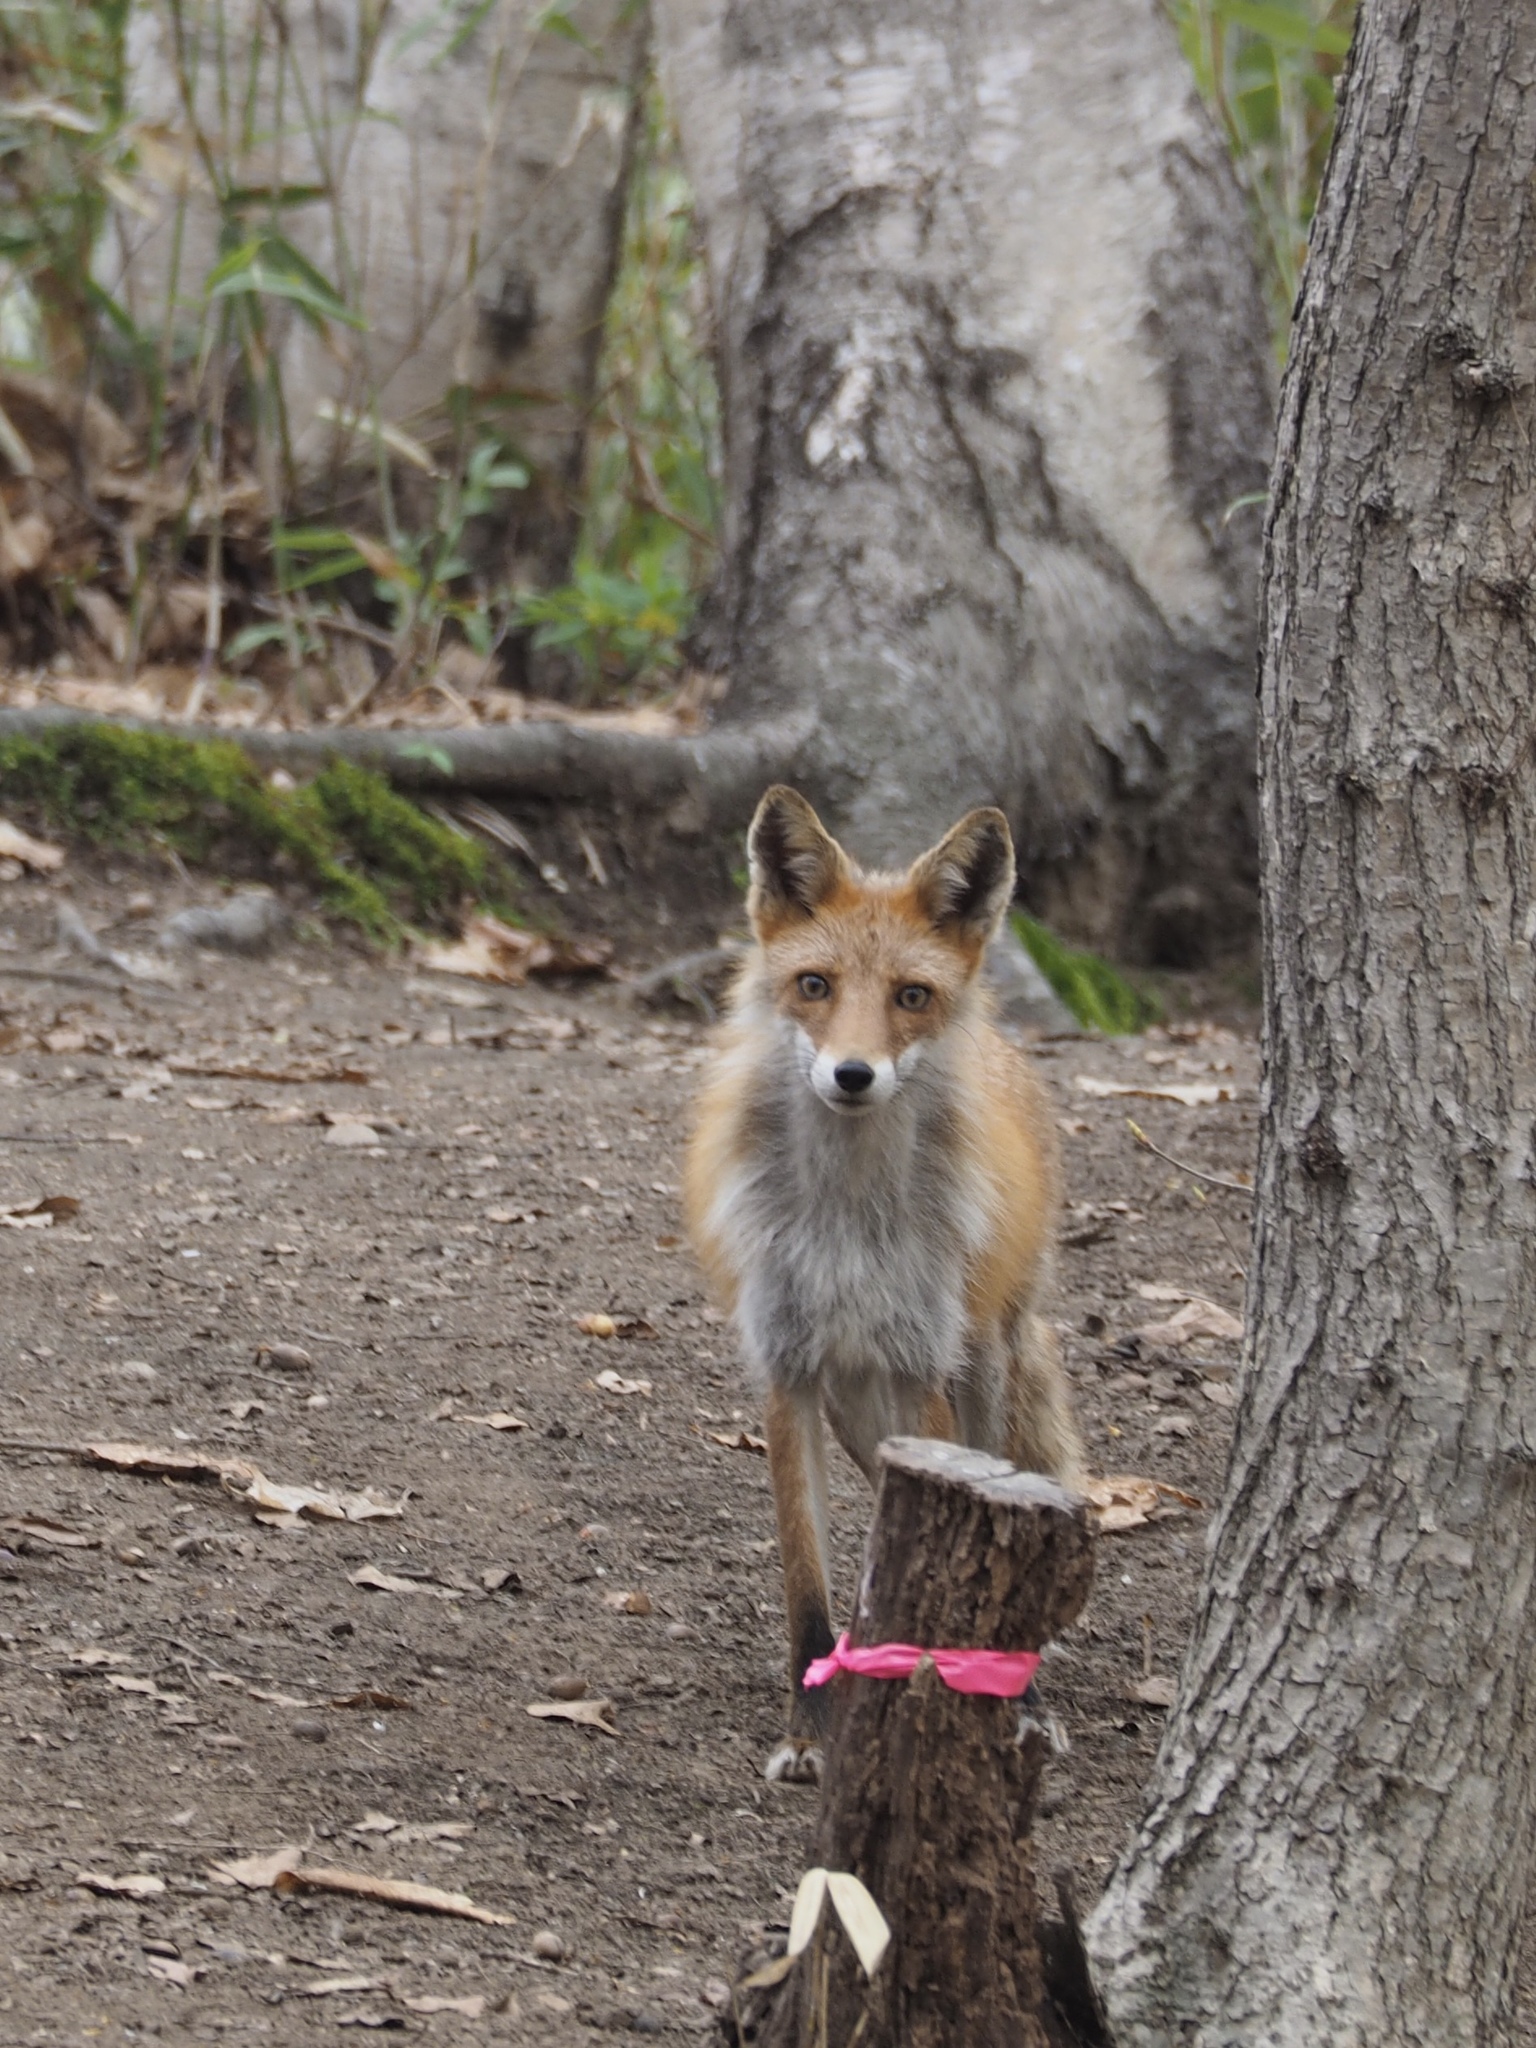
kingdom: Animalia
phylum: Chordata
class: Mammalia
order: Carnivora
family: Canidae
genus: Vulpes
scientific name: Vulpes vulpes
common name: Red fox
